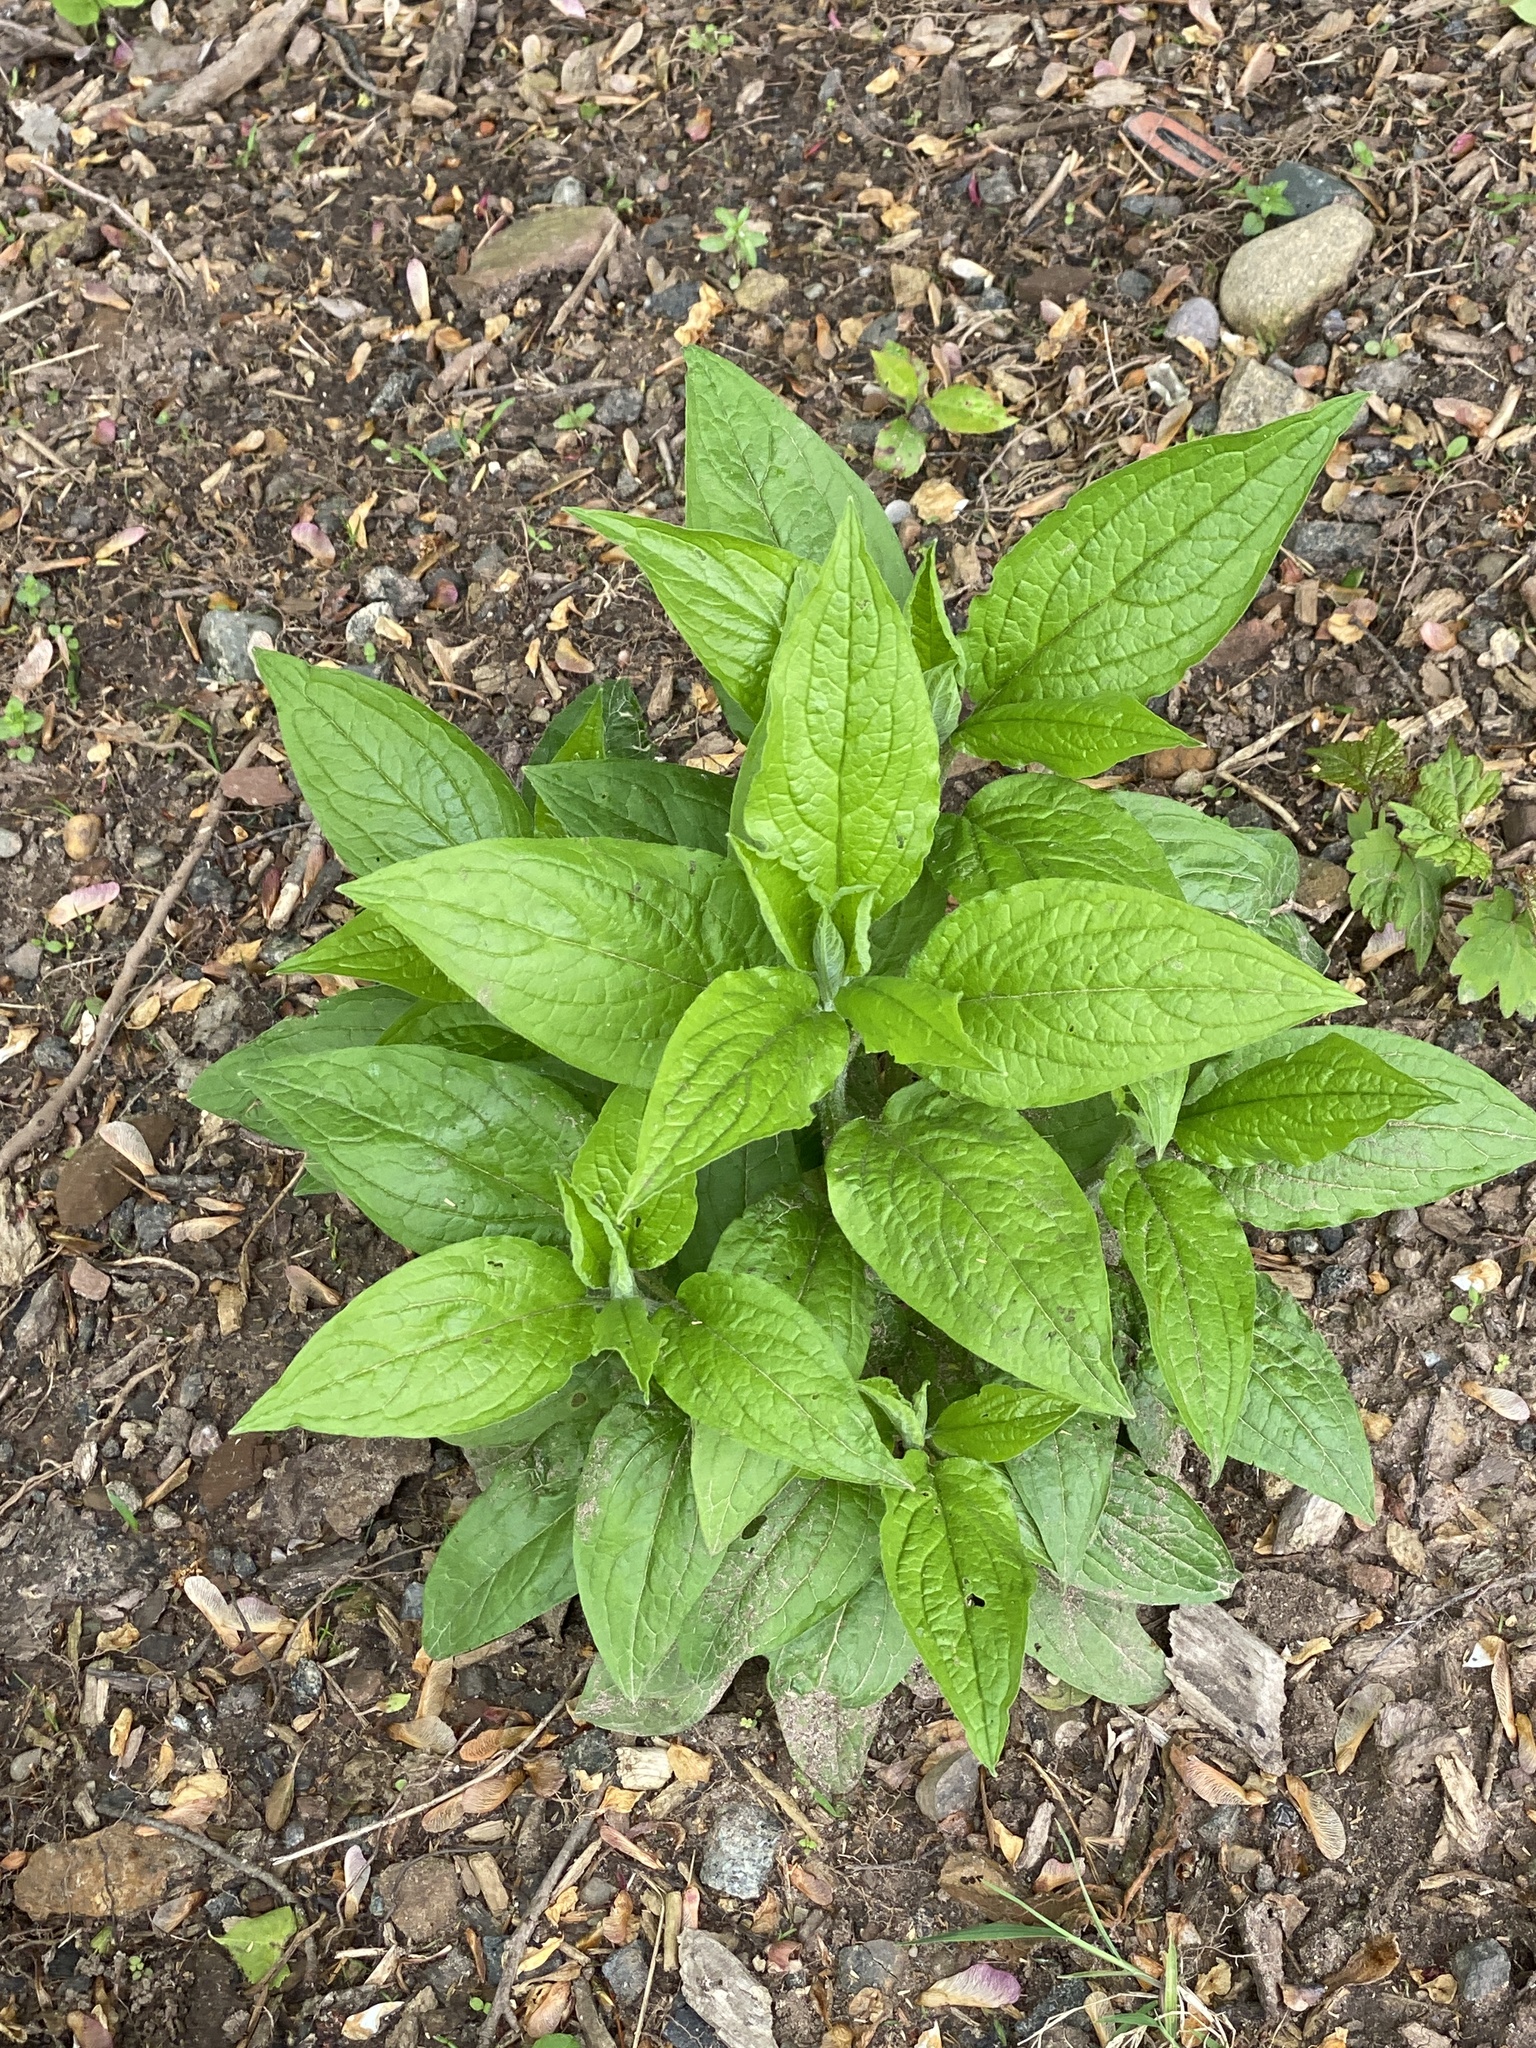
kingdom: Plantae
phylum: Tracheophyta
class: Magnoliopsida
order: Boraginales
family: Boraginaceae
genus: Hackelia
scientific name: Hackelia virginiana
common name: Beggar's-lice
